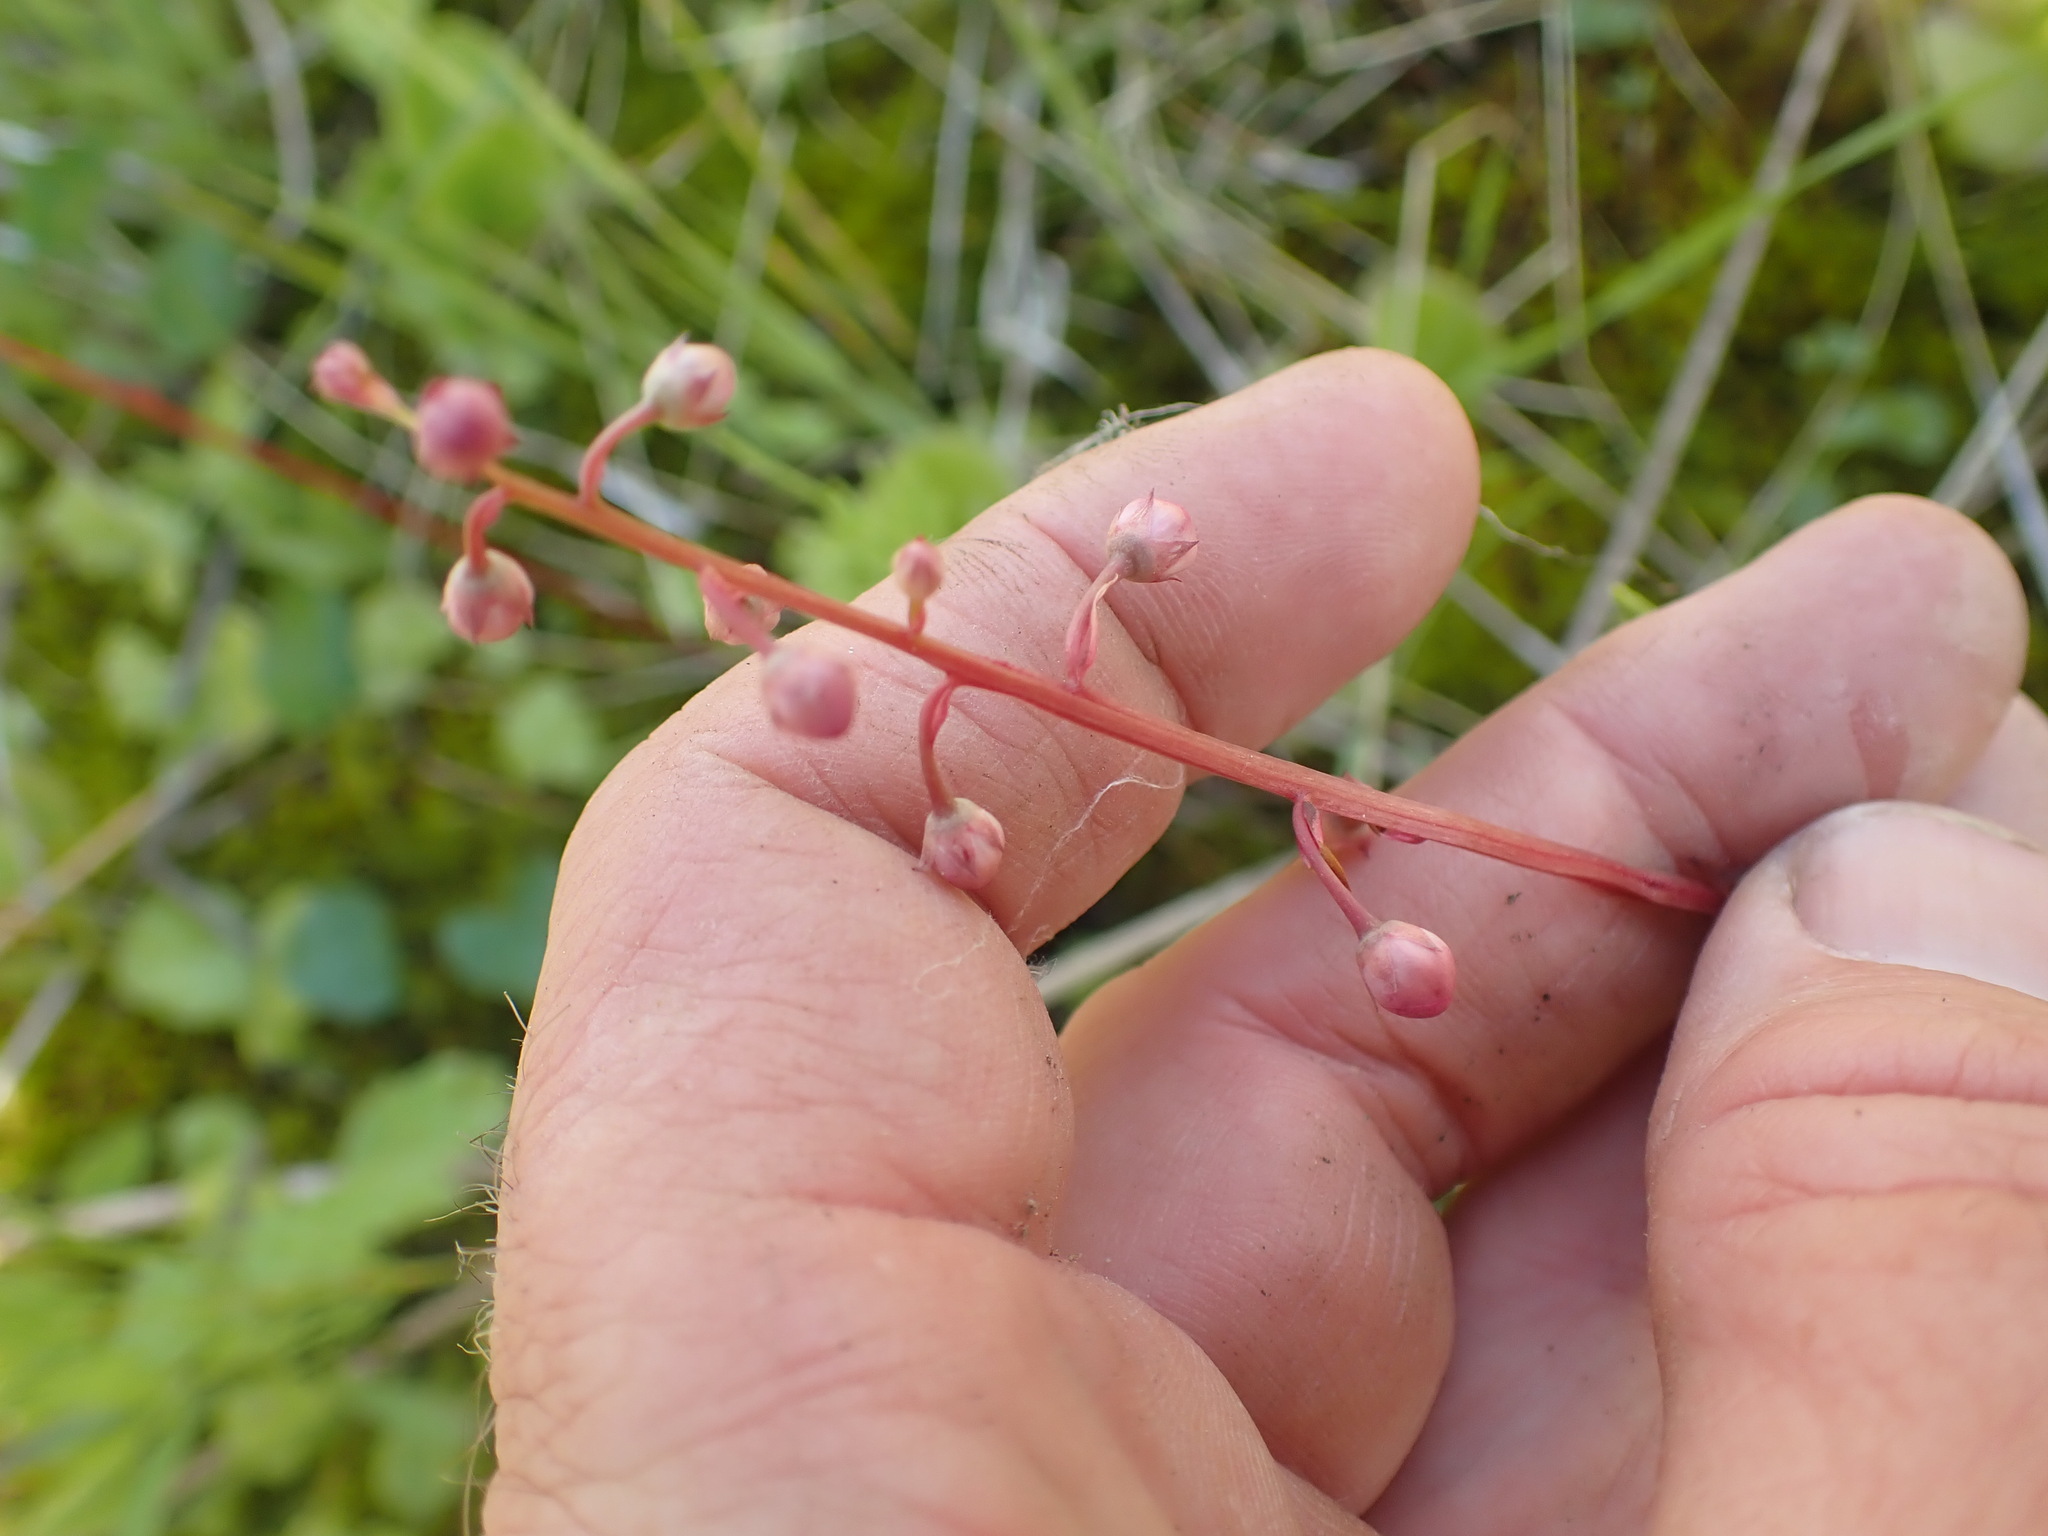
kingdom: Plantae
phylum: Tracheophyta
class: Magnoliopsida
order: Ericales
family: Ericaceae
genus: Pyrola
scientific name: Pyrola asarifolia
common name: Bog wintergreen
